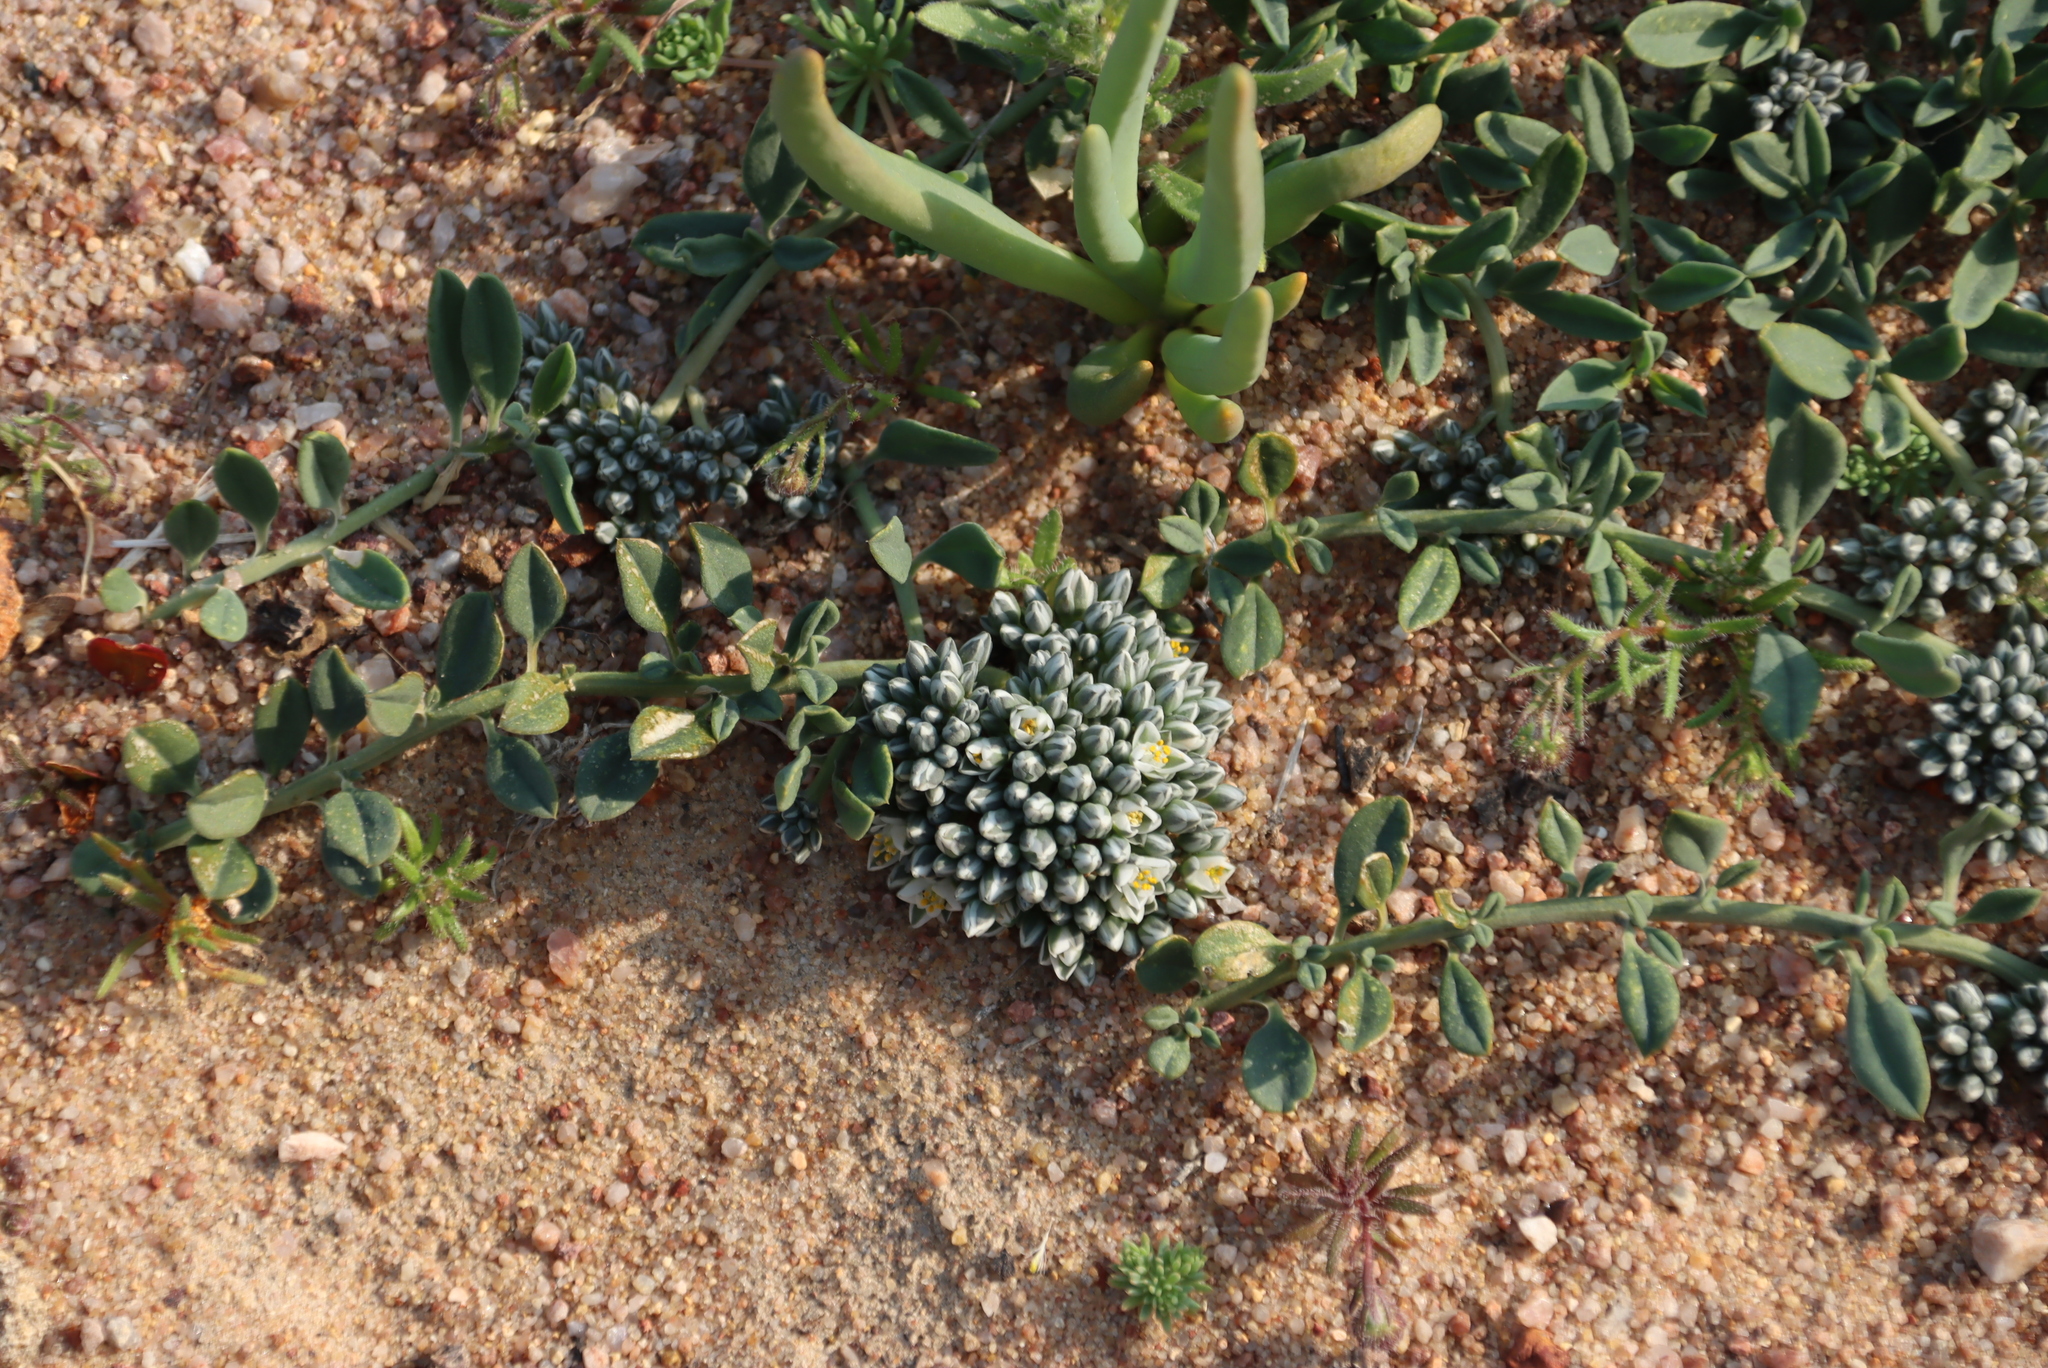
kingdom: Plantae
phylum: Tracheophyta
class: Magnoliopsida
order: Caryophyllales
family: Limeaceae
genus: Limeum
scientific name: Limeum africanum
